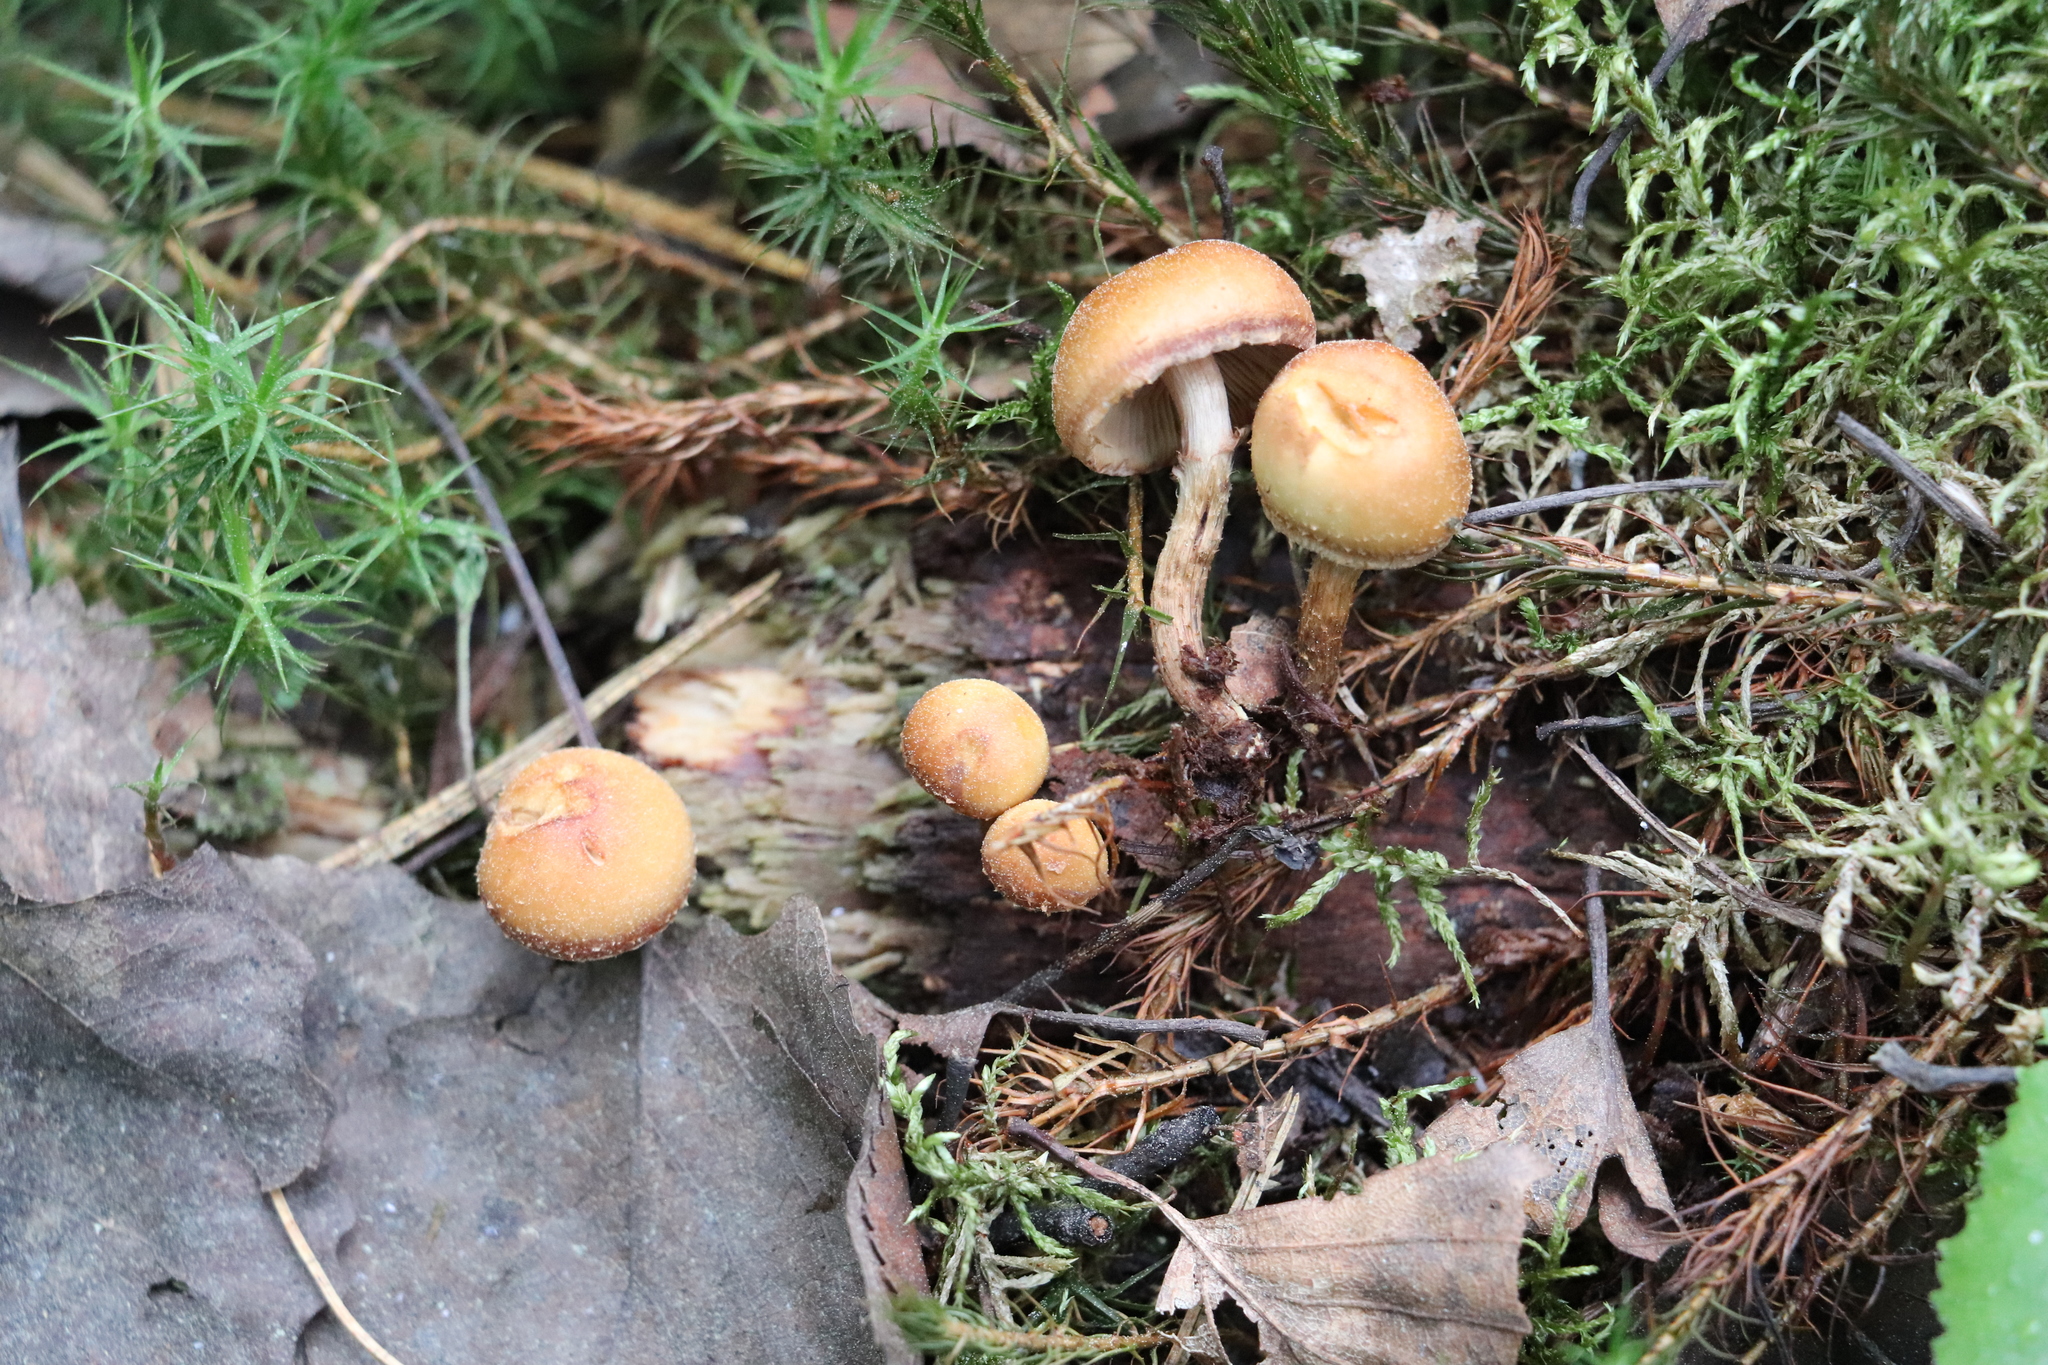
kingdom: Fungi
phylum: Basidiomycota
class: Agaricomycetes
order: Agaricales
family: Strophariaceae
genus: Kuehneromyces
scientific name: Kuehneromyces mutabilis
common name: Sheathed woodtuft
